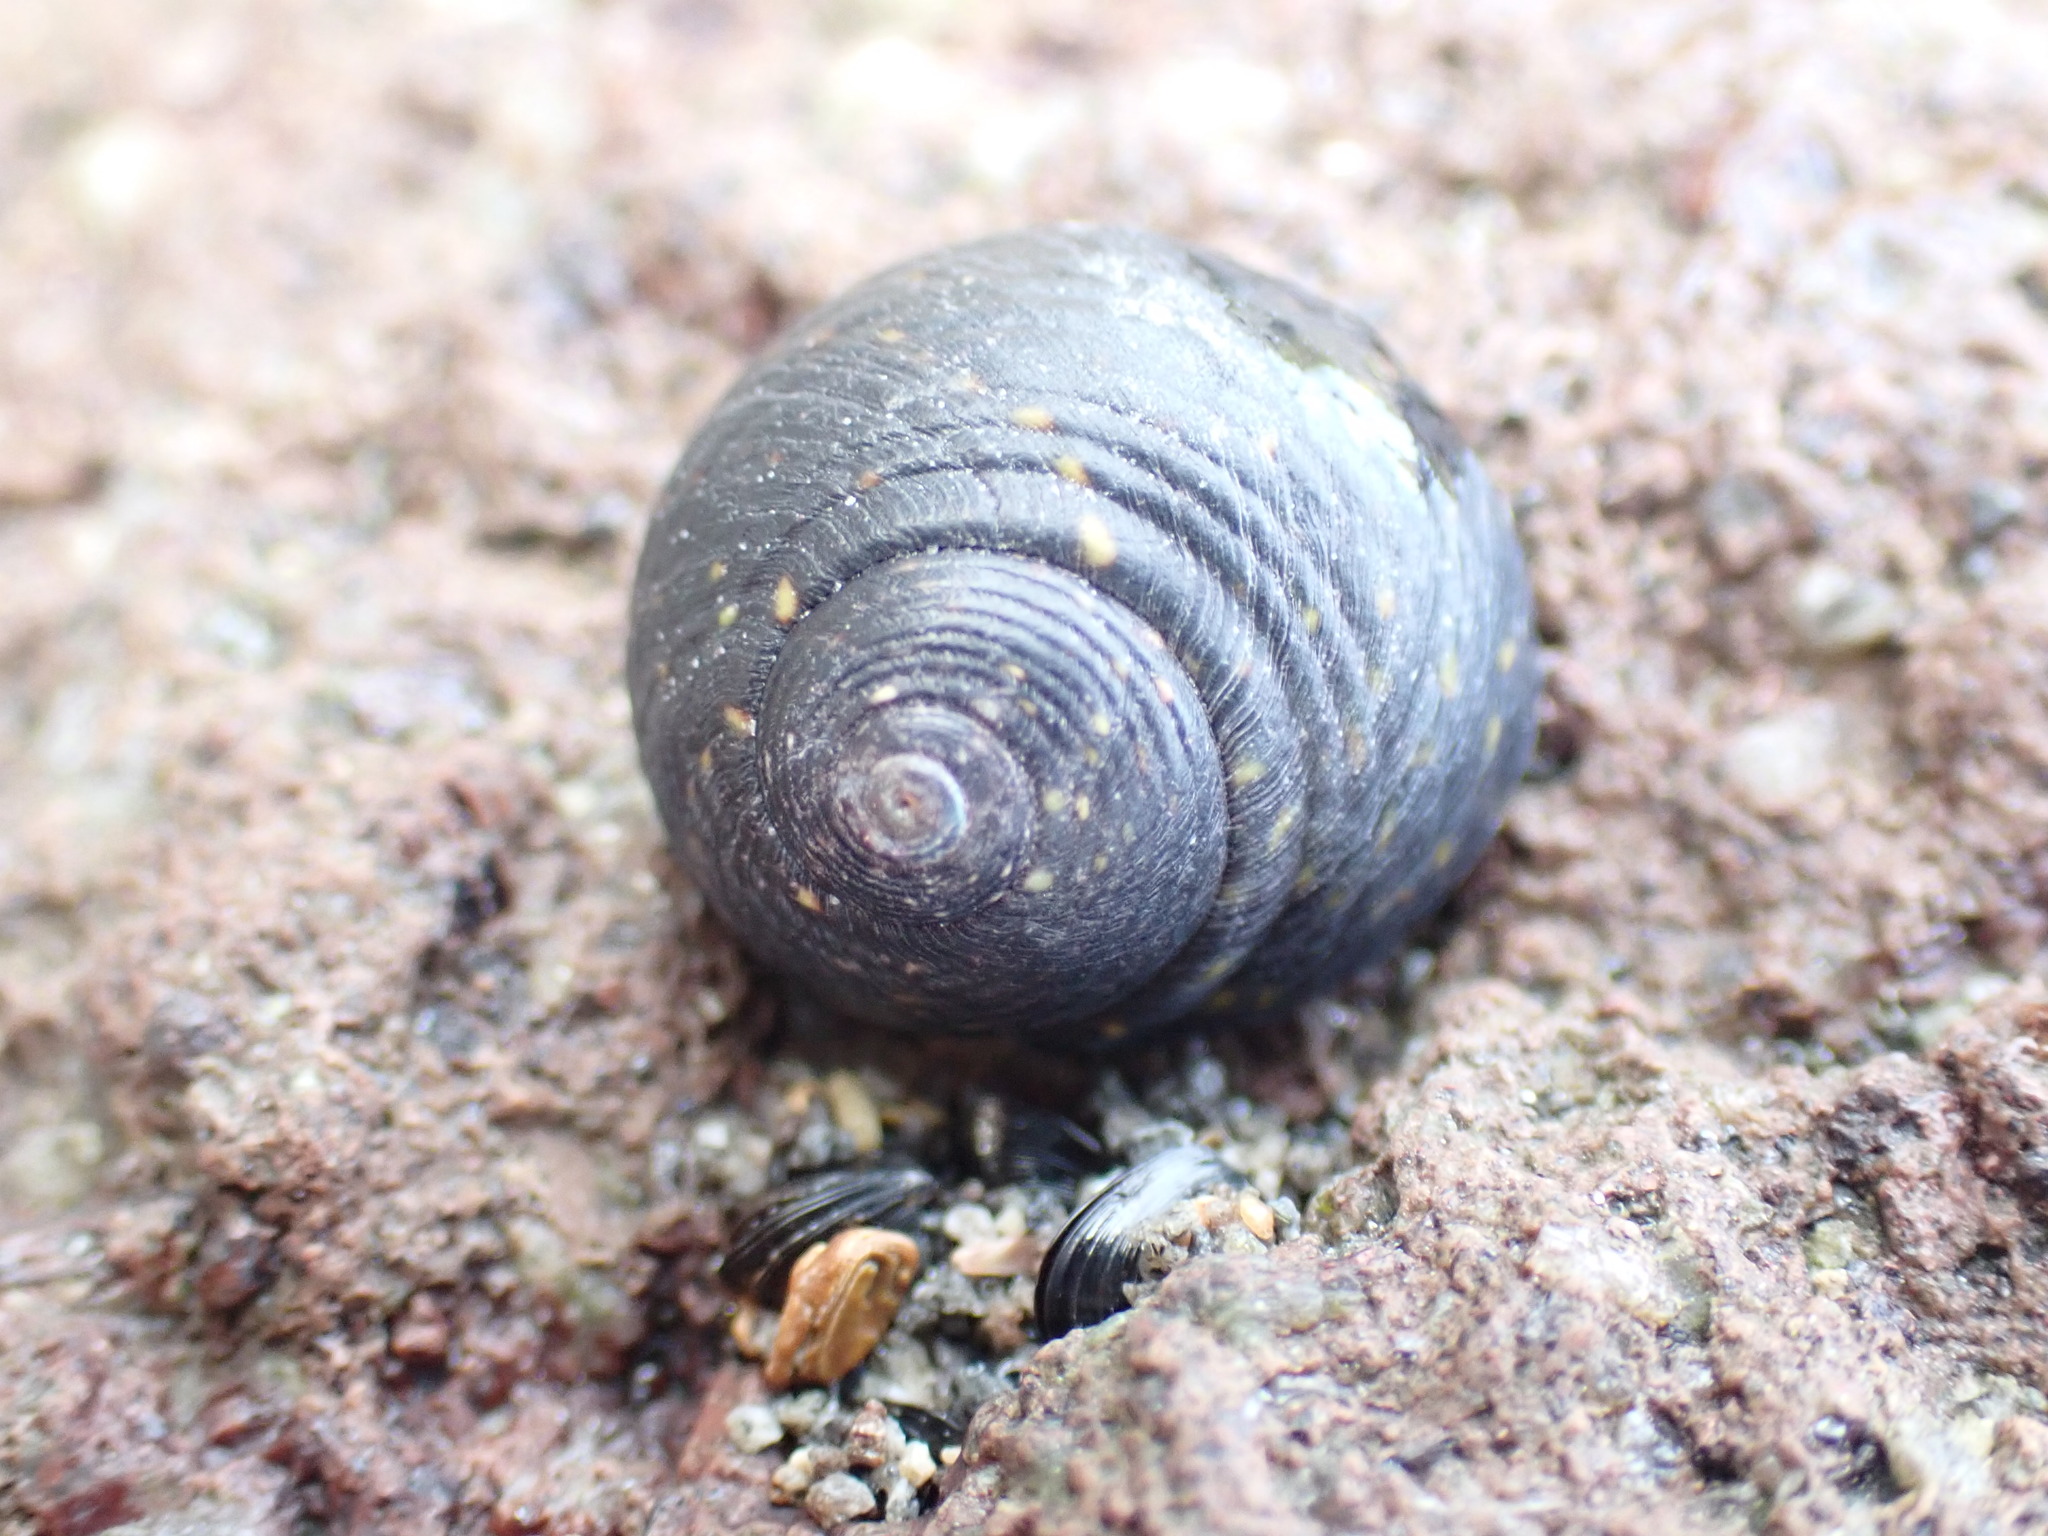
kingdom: Animalia
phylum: Mollusca
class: Gastropoda
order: Trochida
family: Trochidae
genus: Diloma
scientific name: Diloma aridum
